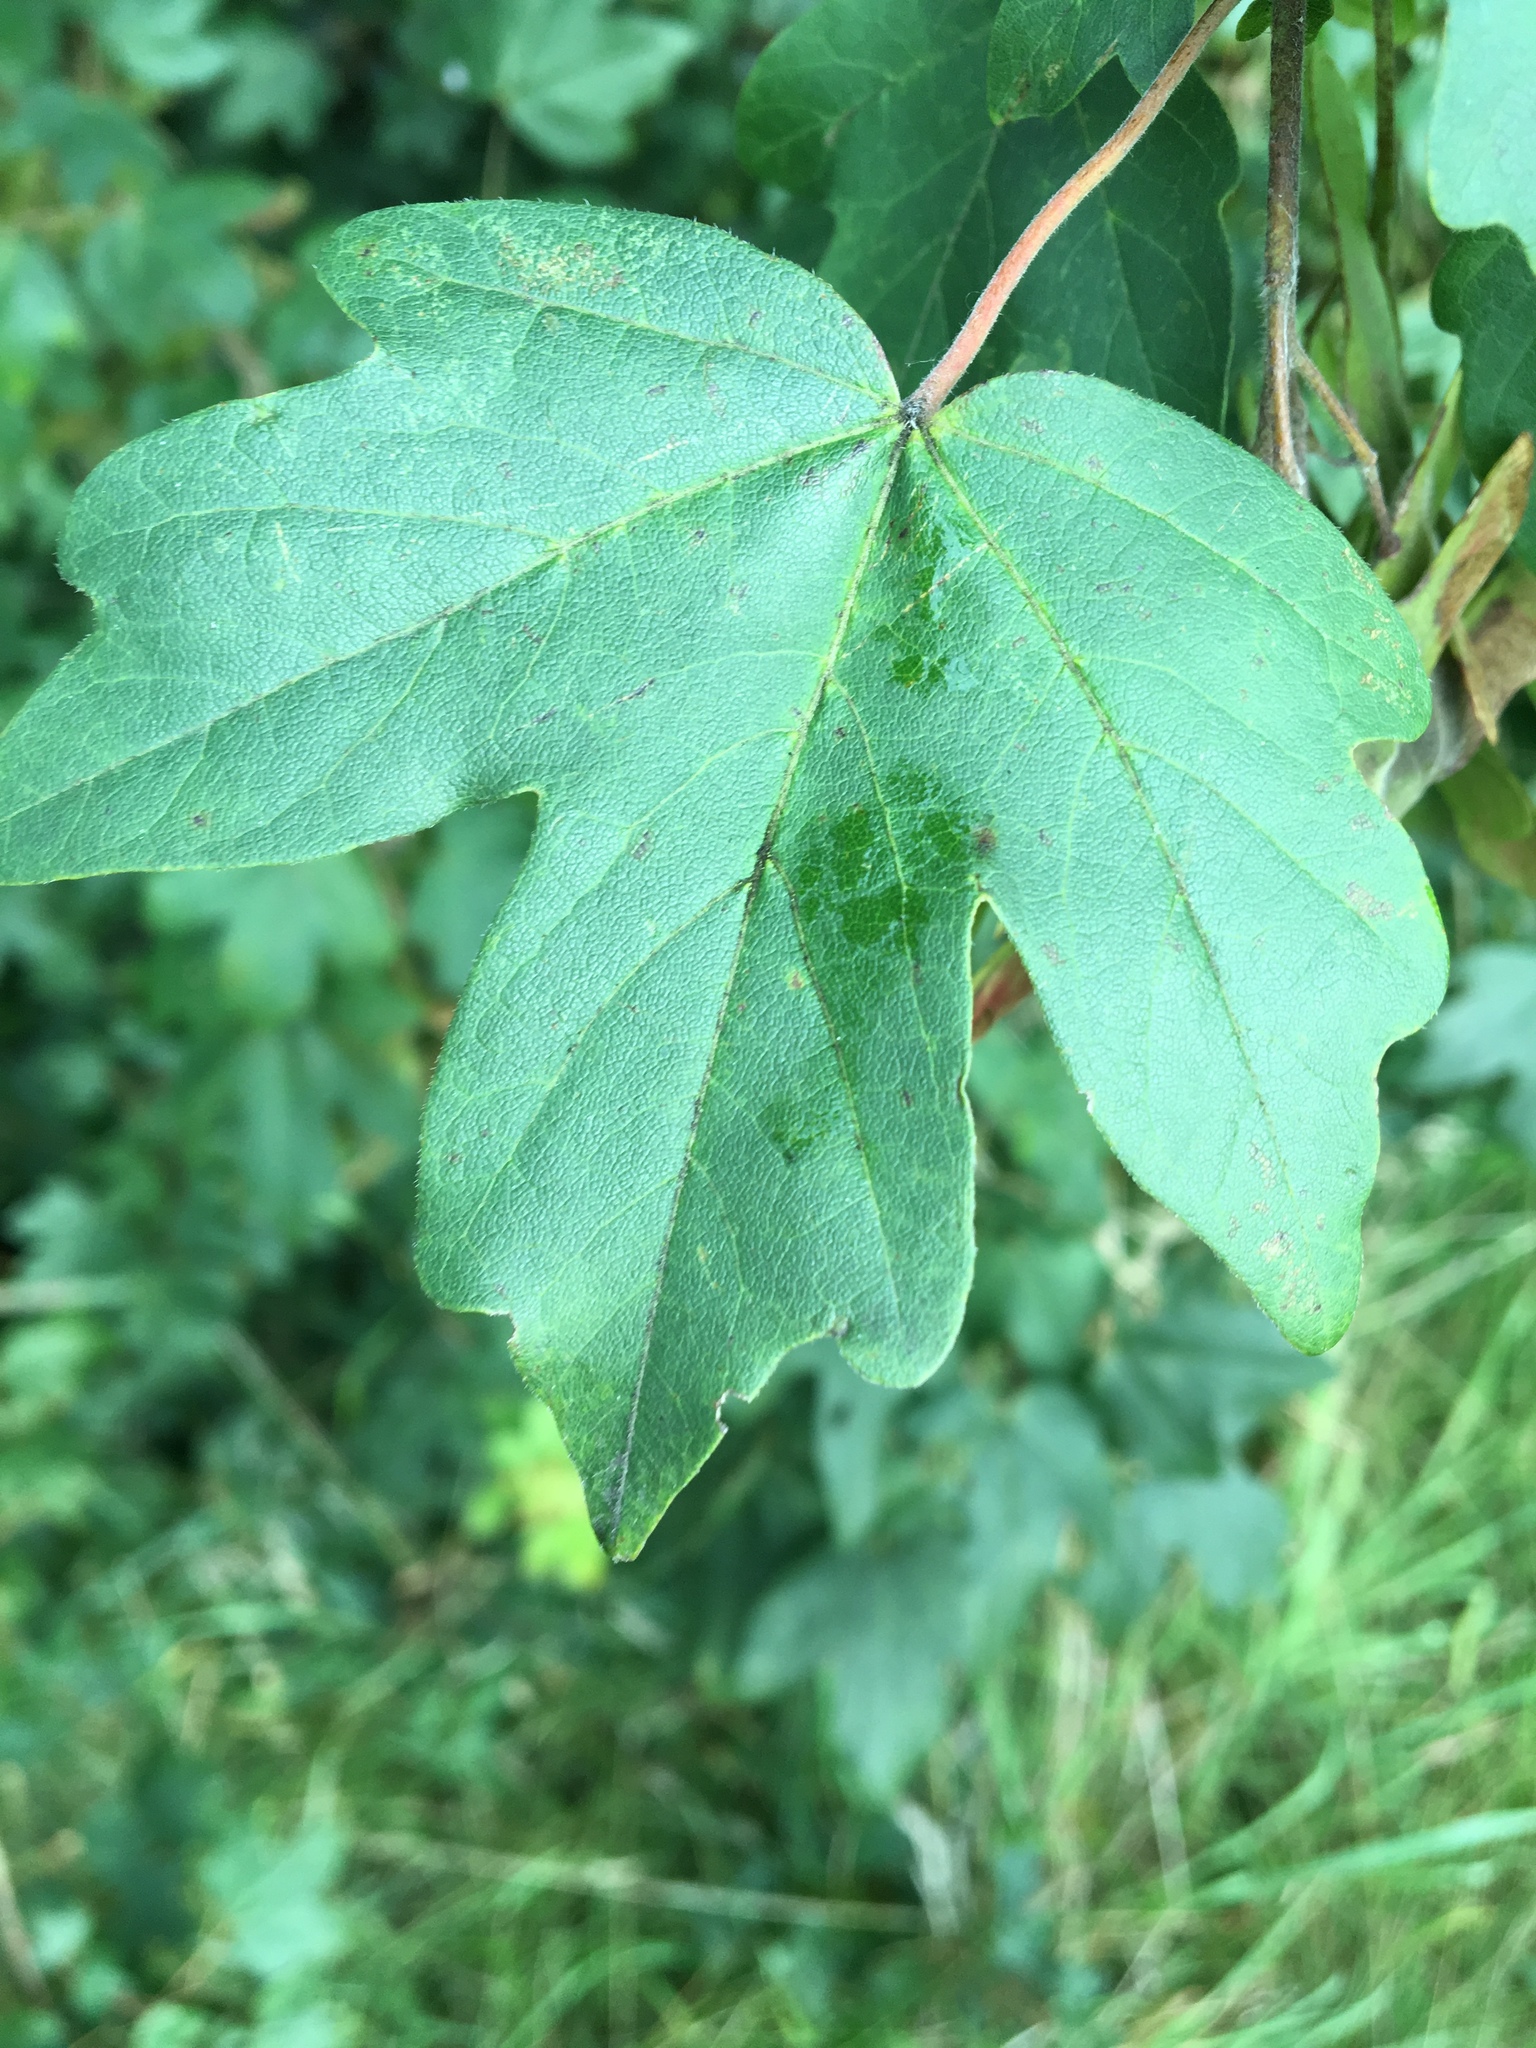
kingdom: Plantae
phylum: Tracheophyta
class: Magnoliopsida
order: Sapindales
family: Sapindaceae
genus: Acer
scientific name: Acer campestre
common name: Field maple
